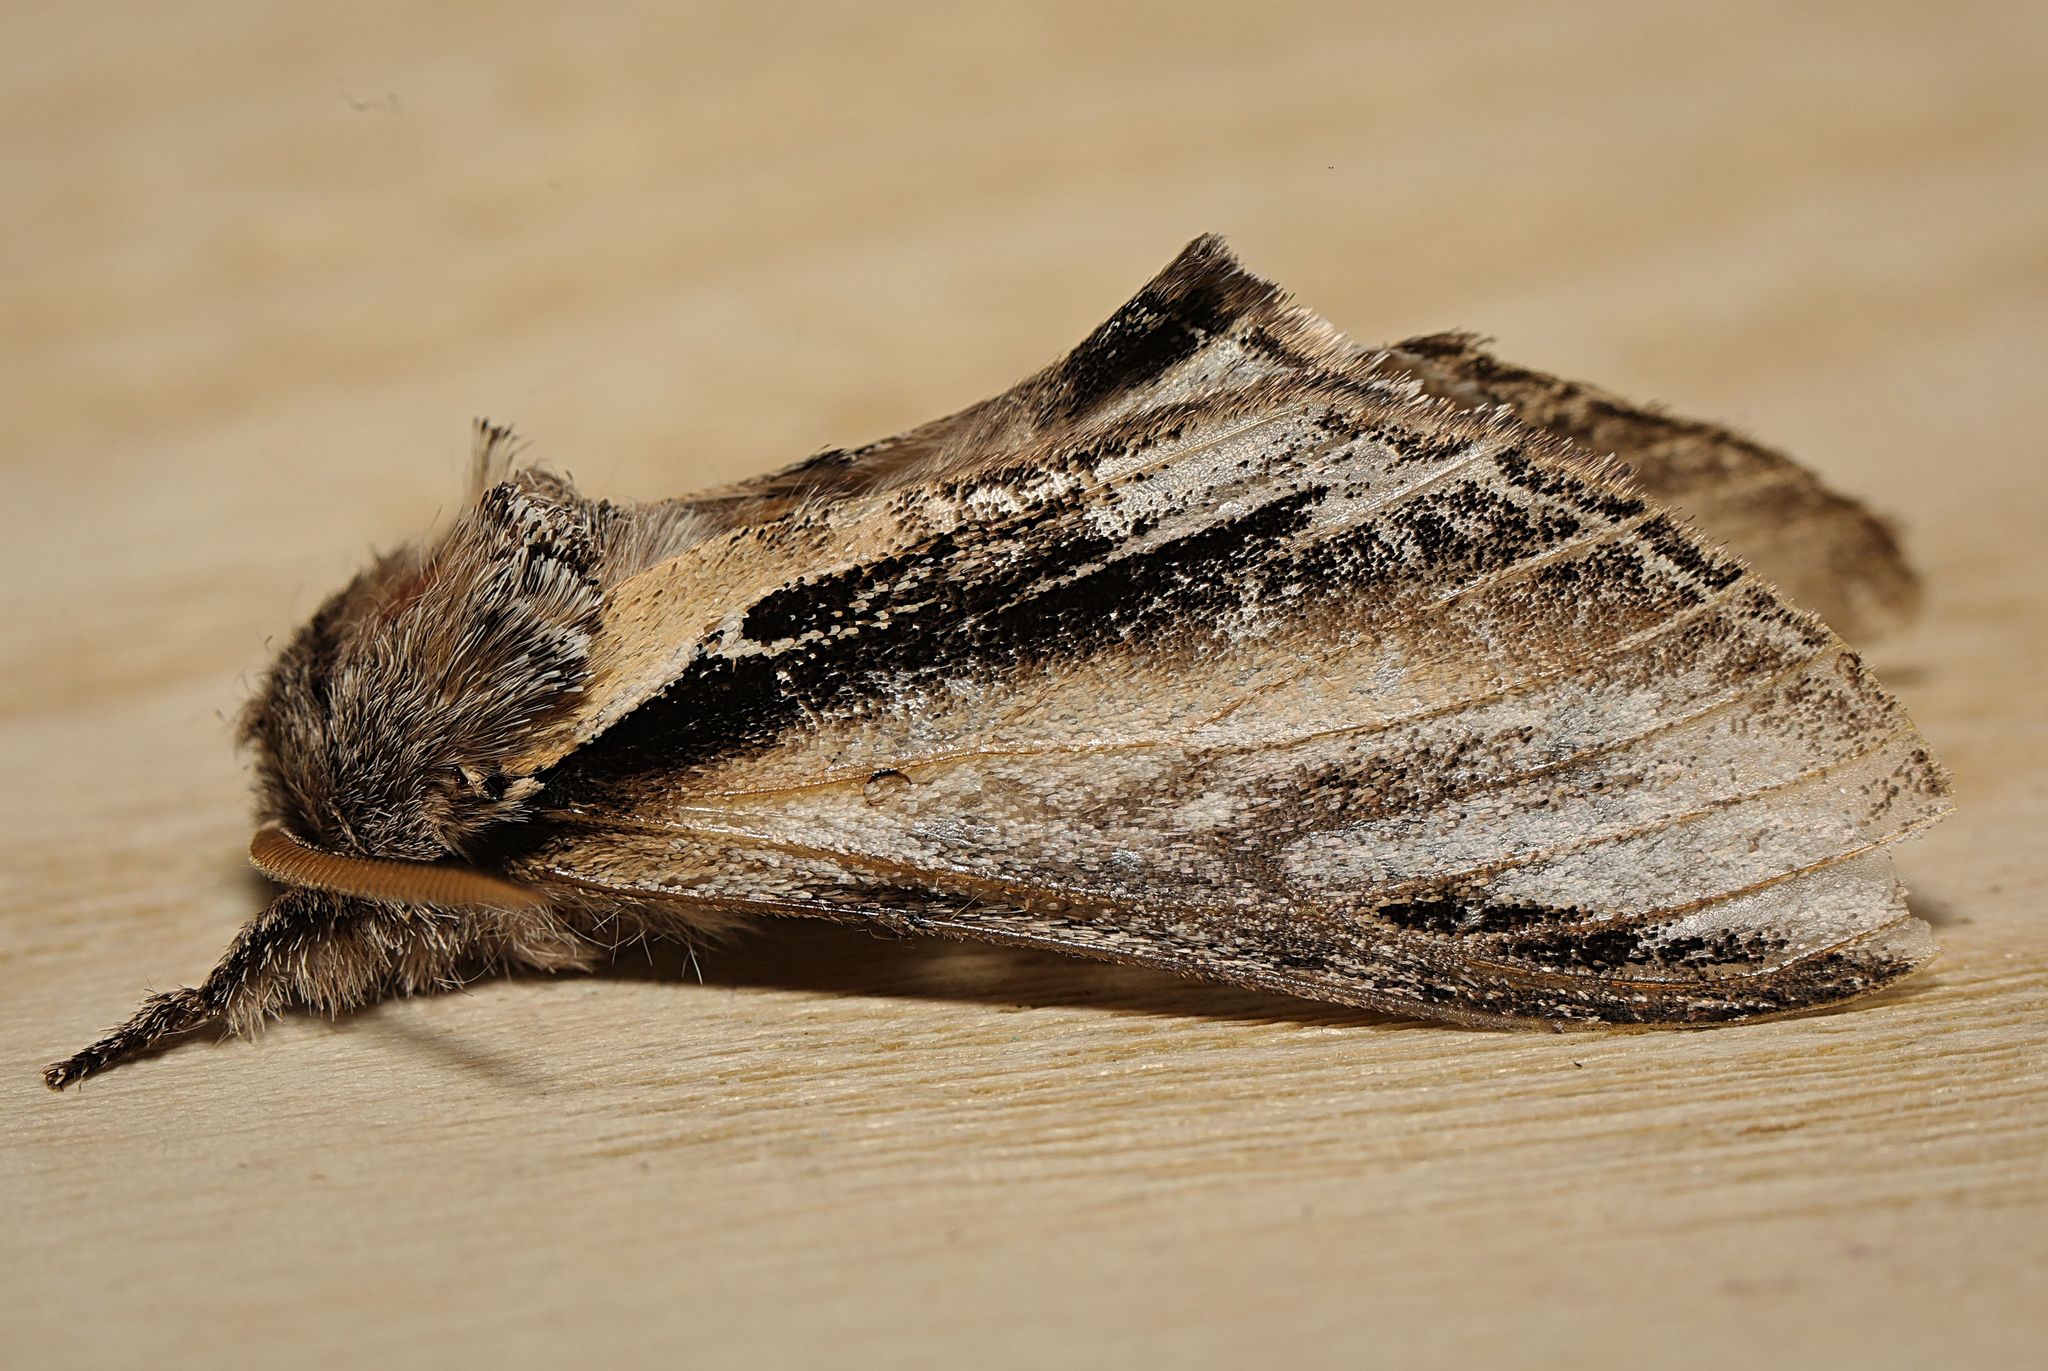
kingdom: Animalia
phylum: Arthropoda
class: Insecta
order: Lepidoptera
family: Notodontidae
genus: Pheosia
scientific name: Pheosia tremula
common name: Swallow prominent
